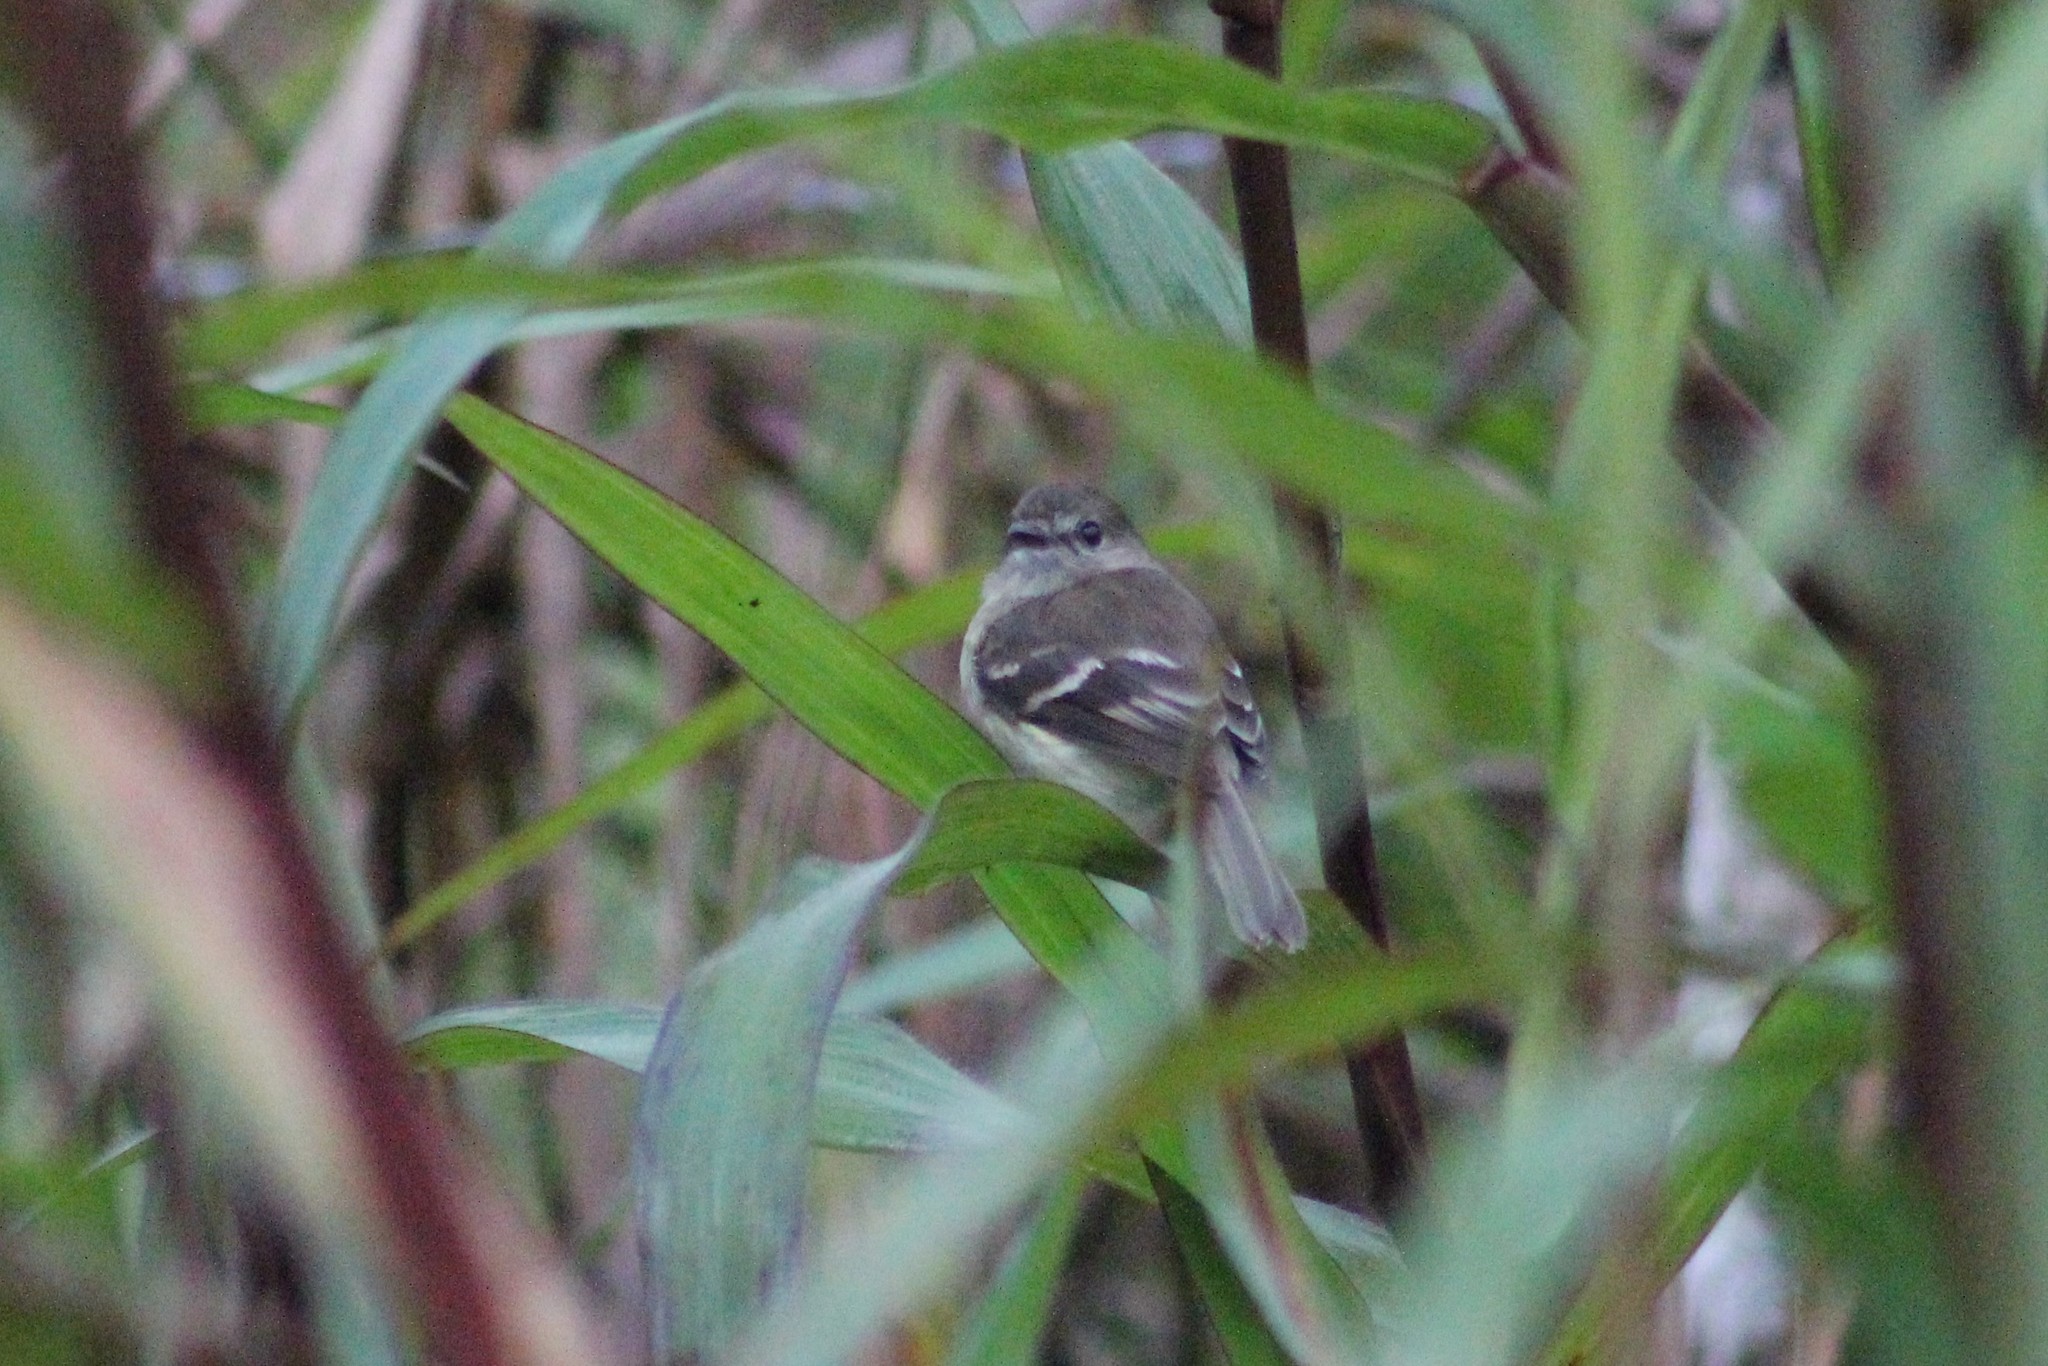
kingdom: Animalia
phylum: Chordata
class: Aves
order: Passeriformes
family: Tyrannidae
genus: Myiophobus
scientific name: Myiophobus cryptoxanthus
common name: Olive-chested flycatcher
